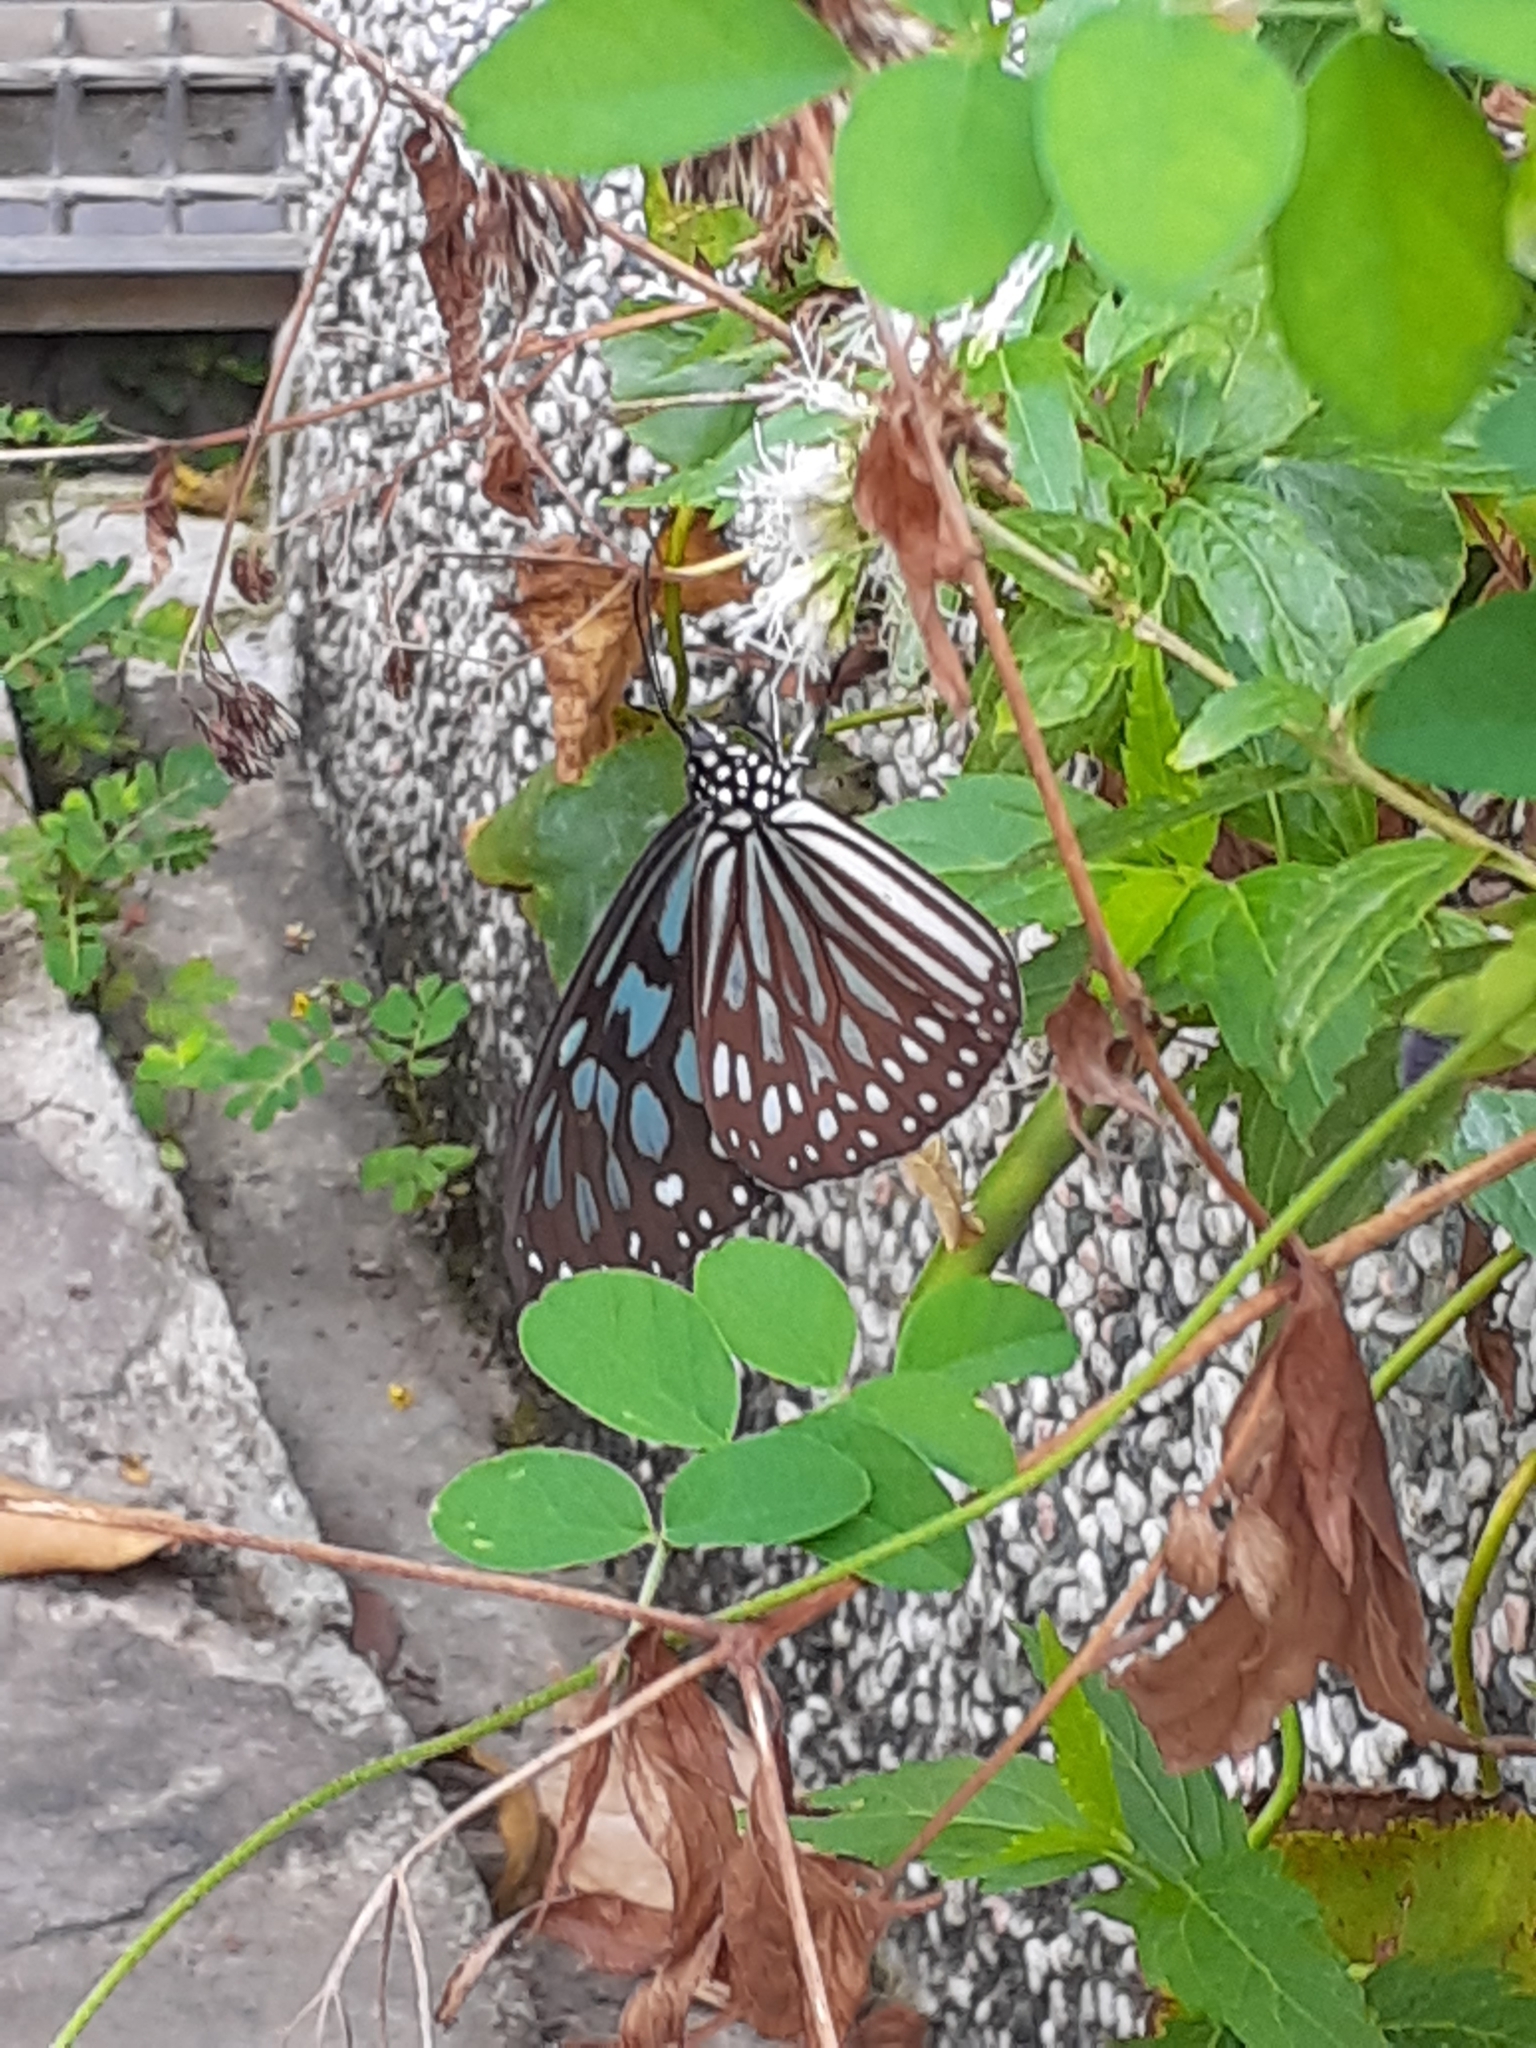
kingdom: Animalia
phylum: Arthropoda
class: Insecta
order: Lepidoptera
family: Nymphalidae
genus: Ideopsis
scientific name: Ideopsis similis
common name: Ceylon blue glassy tiger
